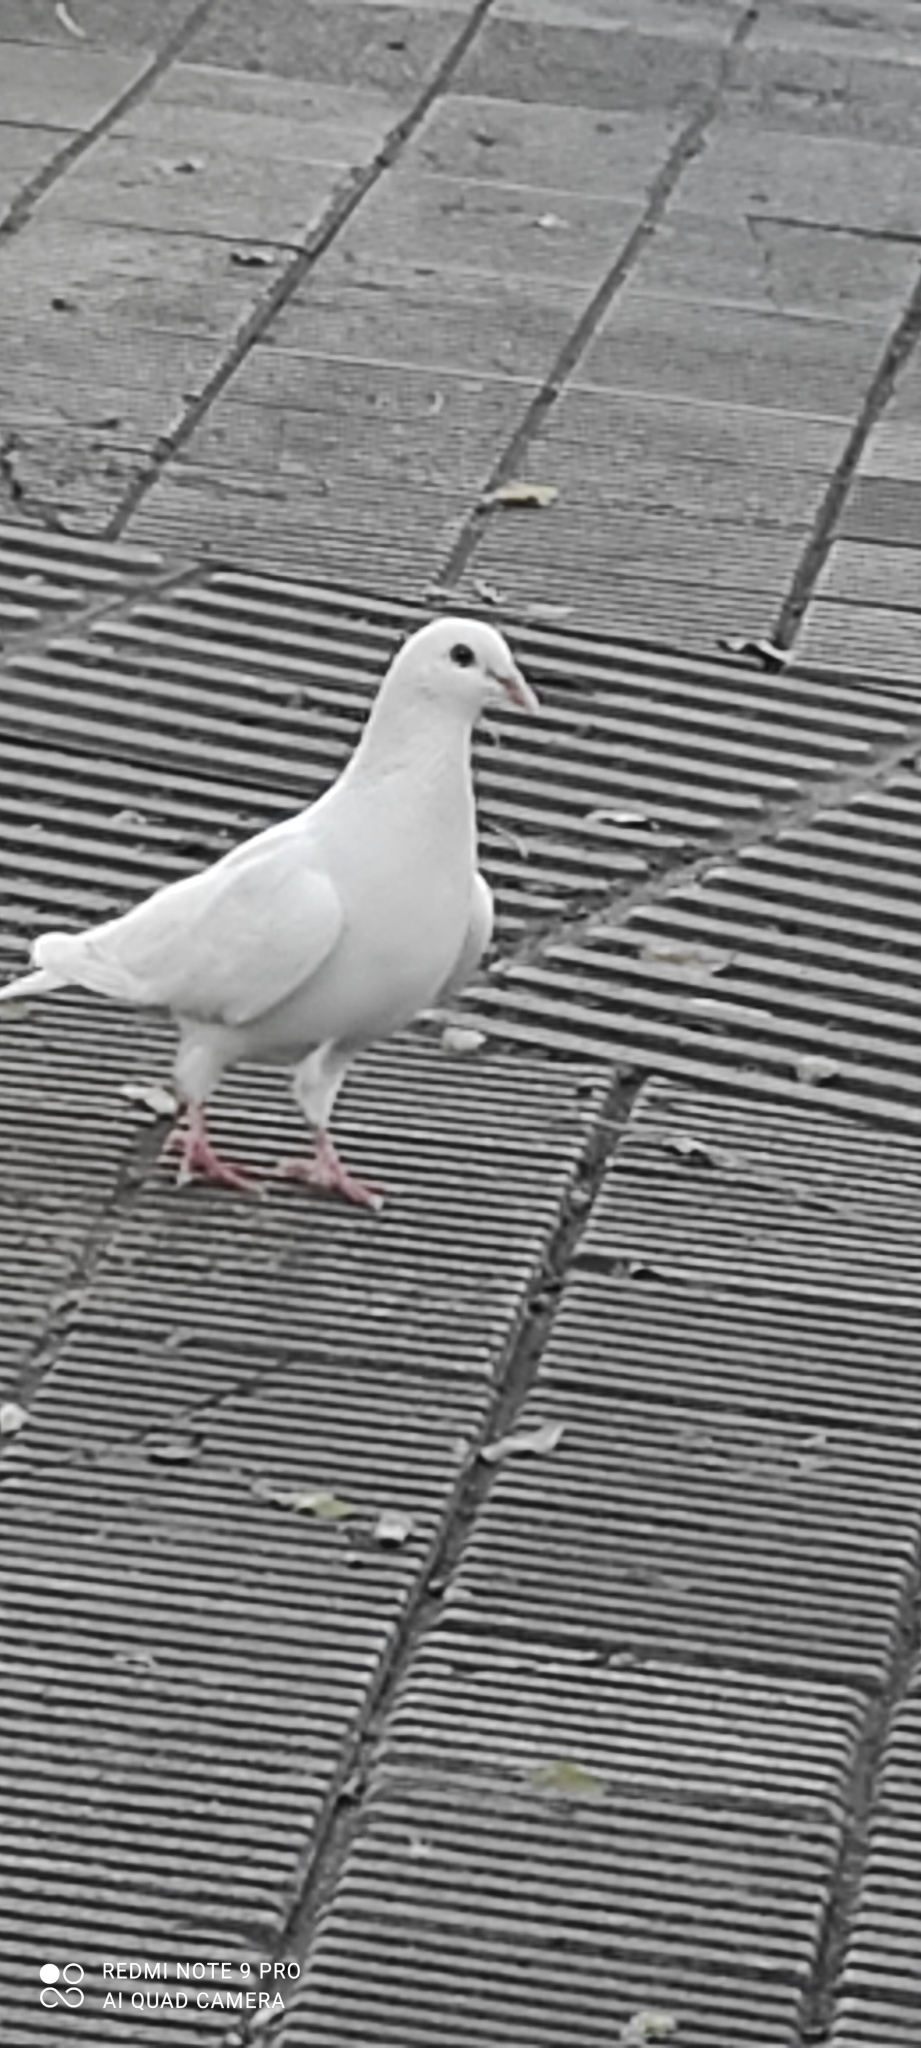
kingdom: Animalia
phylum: Chordata
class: Aves
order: Columbiformes
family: Columbidae
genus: Columba
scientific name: Columba livia
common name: Rock pigeon
